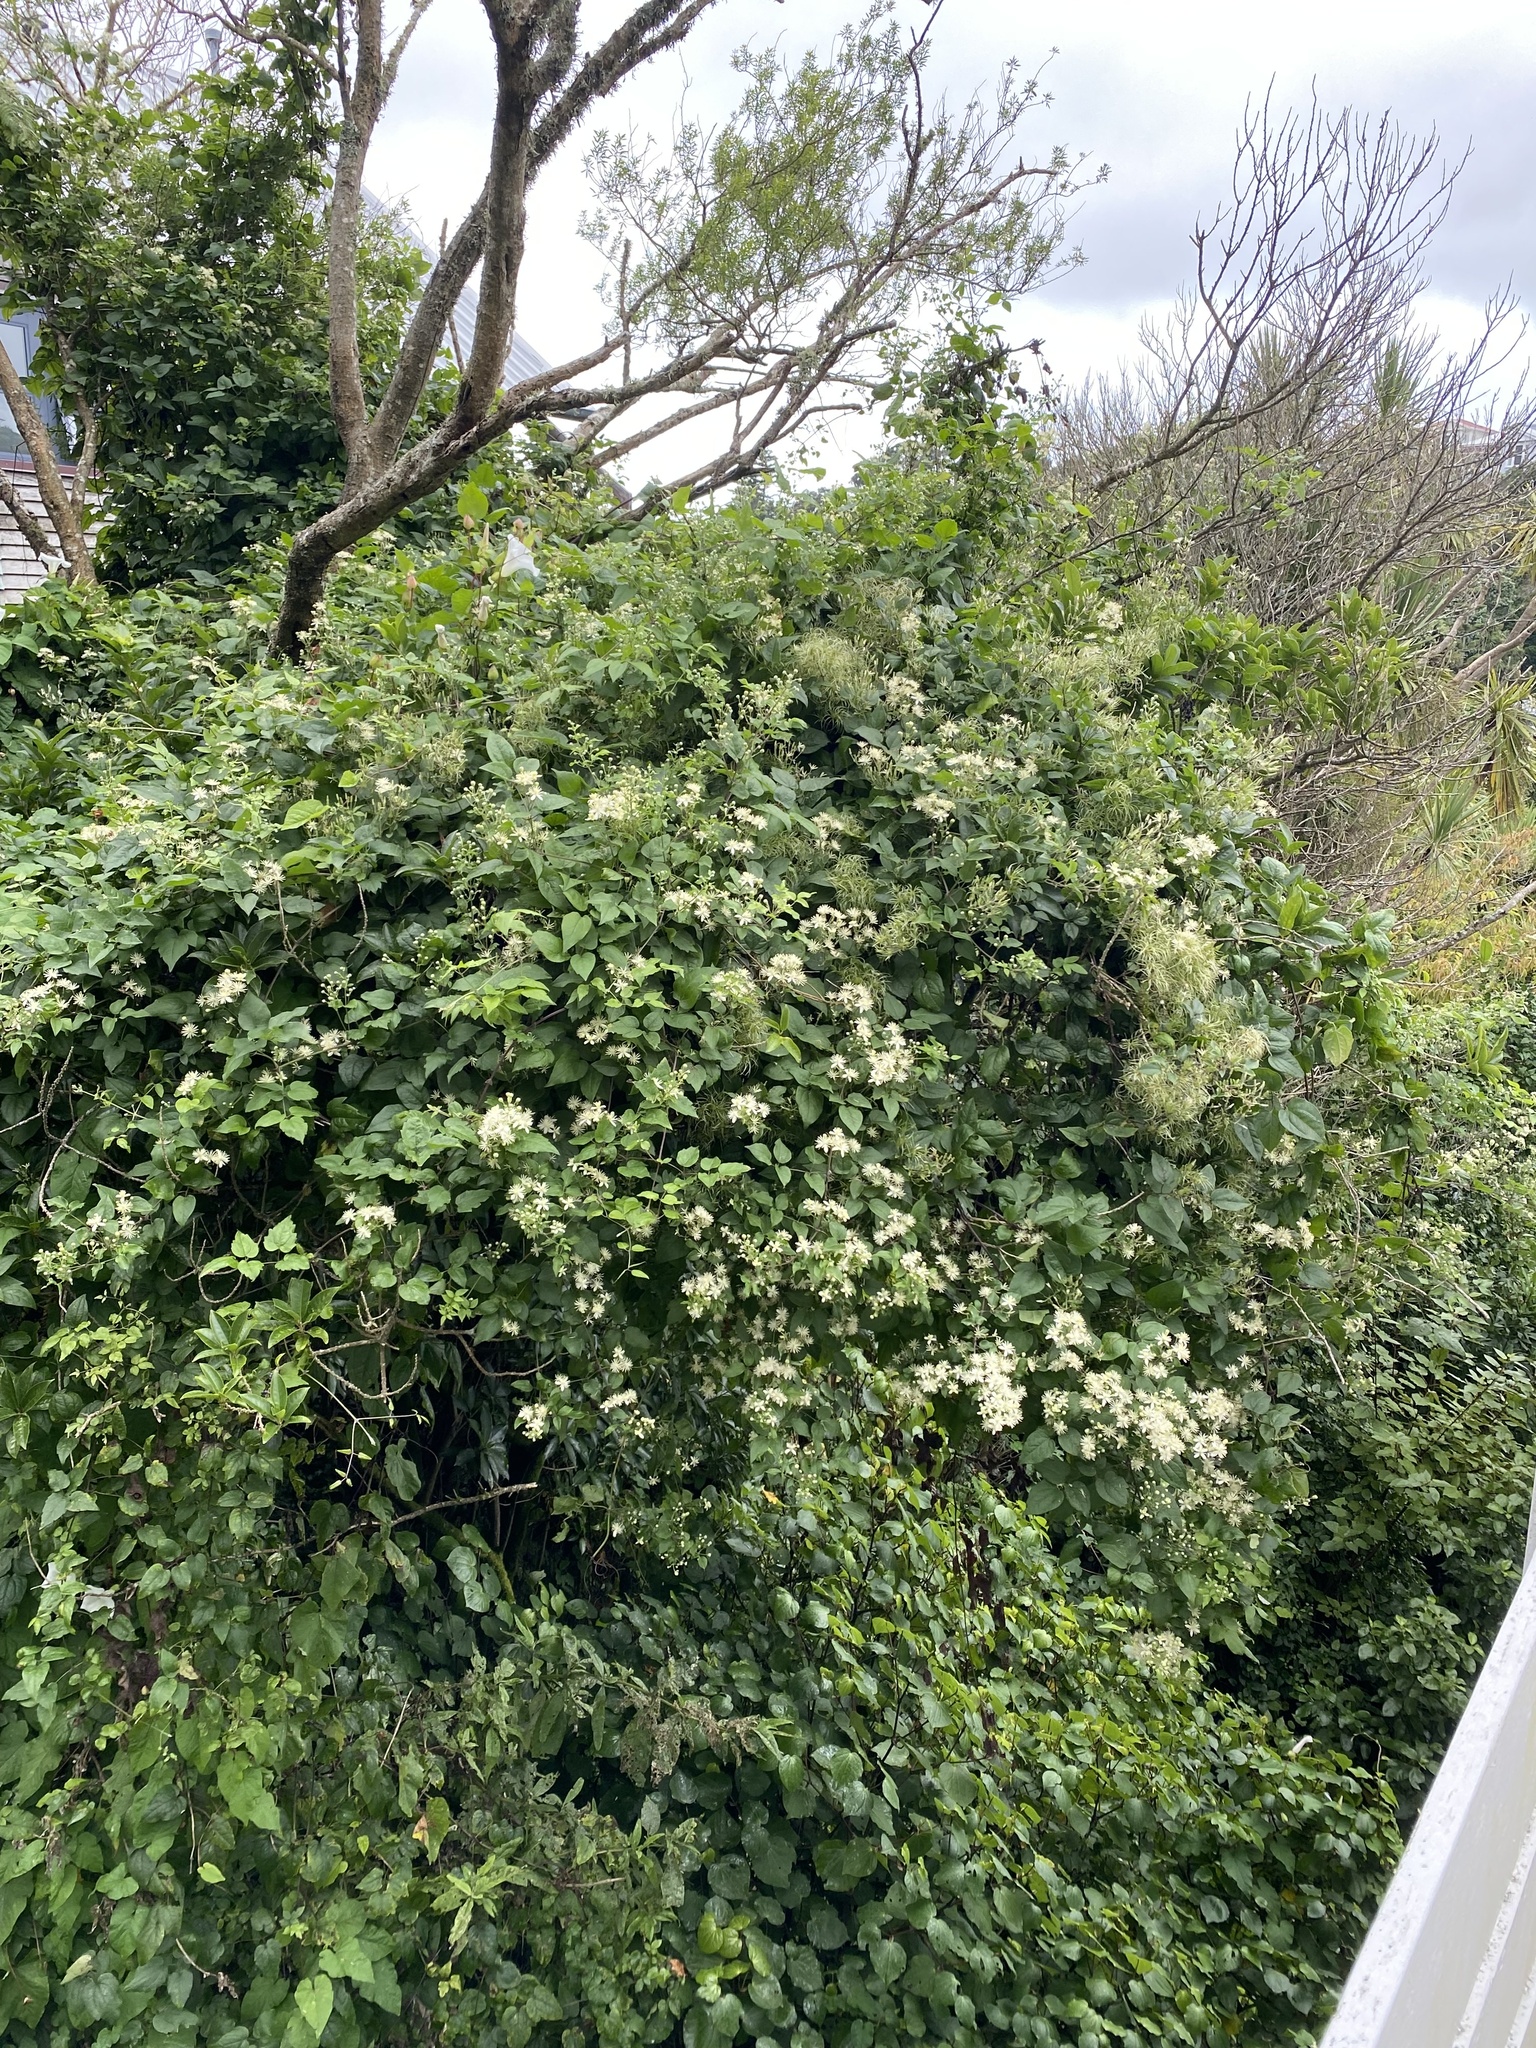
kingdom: Plantae
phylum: Tracheophyta
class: Magnoliopsida
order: Ranunculales
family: Ranunculaceae
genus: Clematis
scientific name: Clematis vitalba
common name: Evergreen clematis
